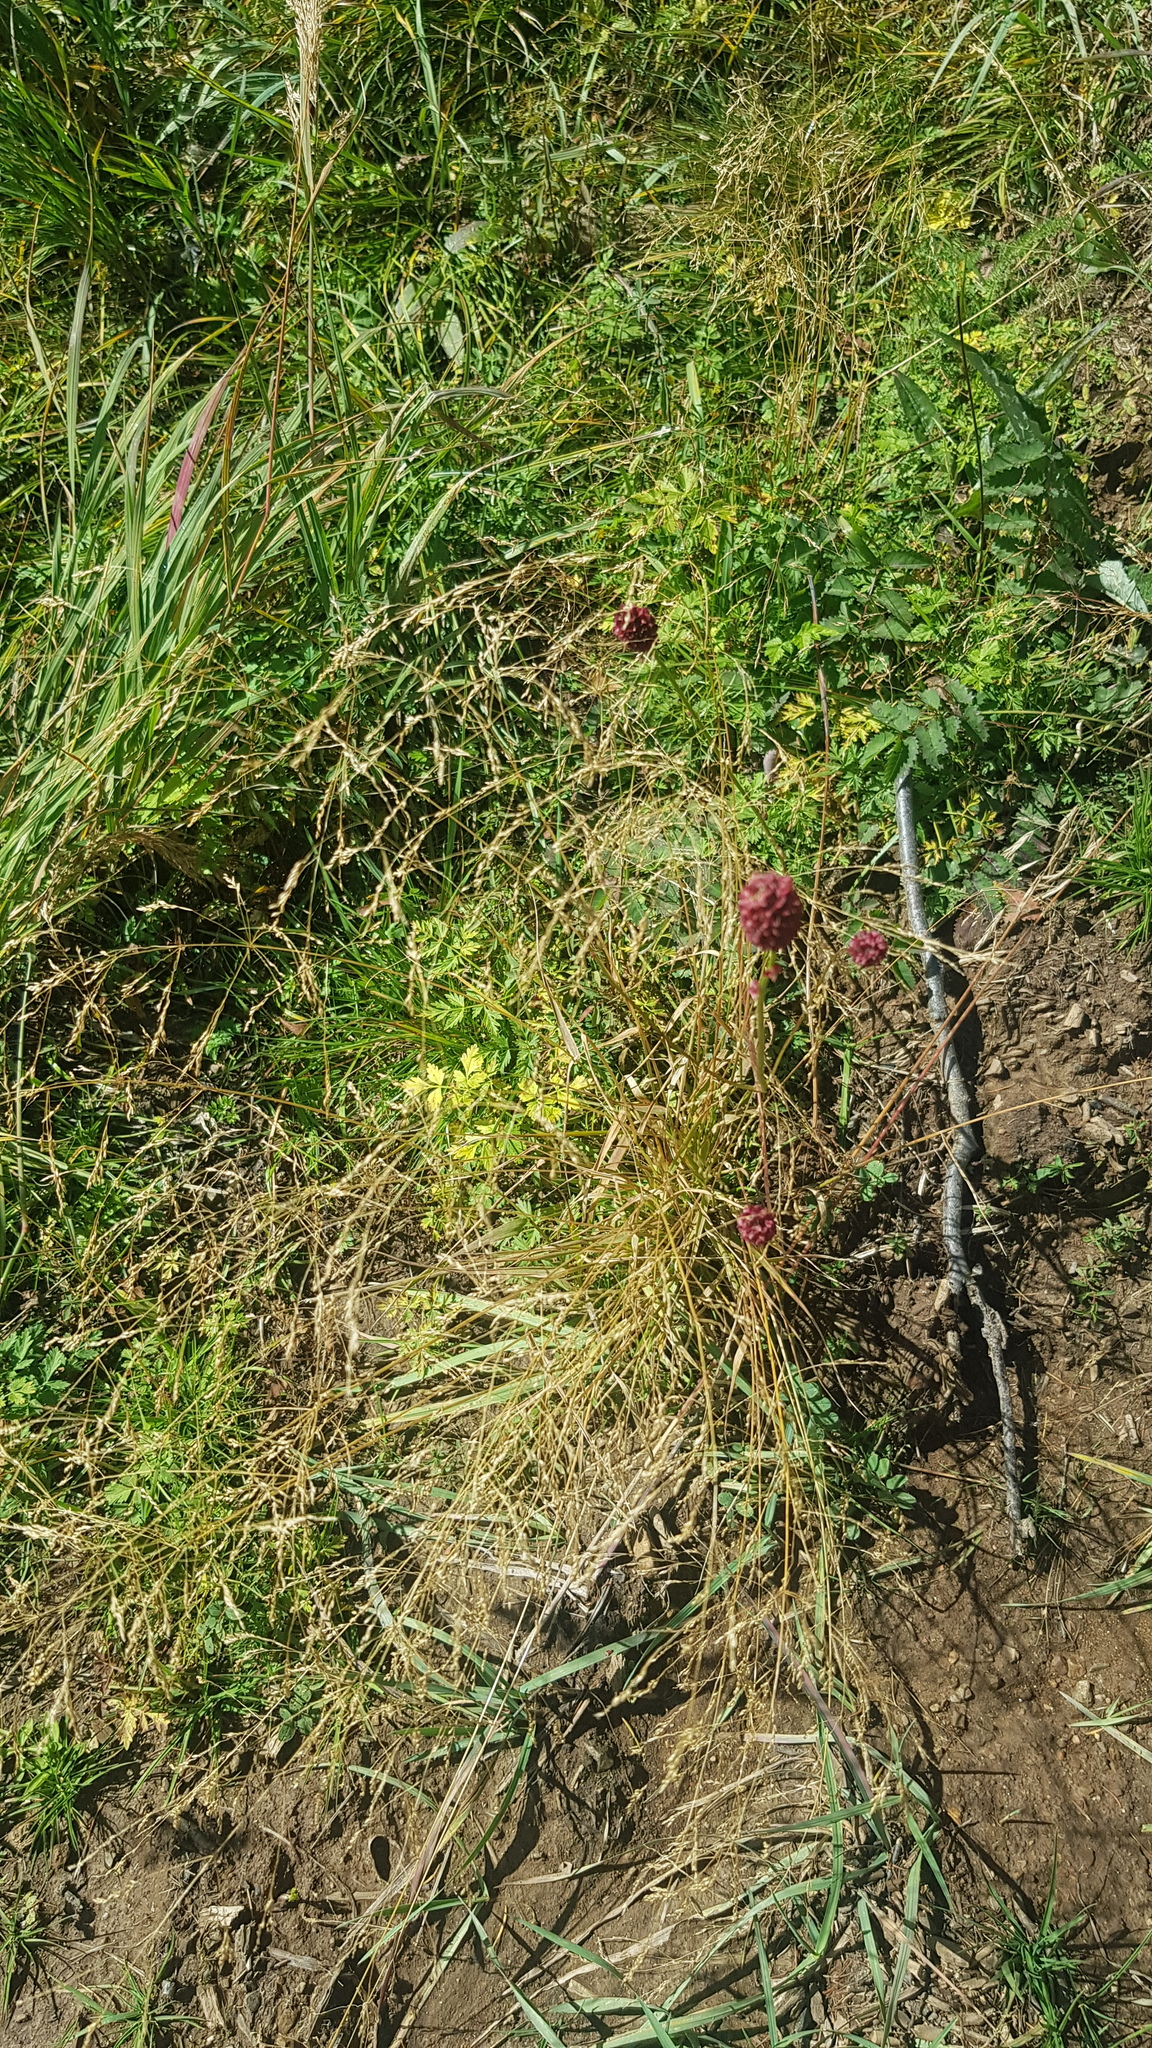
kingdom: Plantae
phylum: Tracheophyta
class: Magnoliopsida
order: Rosales
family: Rosaceae
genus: Sanguisorba
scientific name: Sanguisorba officinalis
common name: Great burnet
